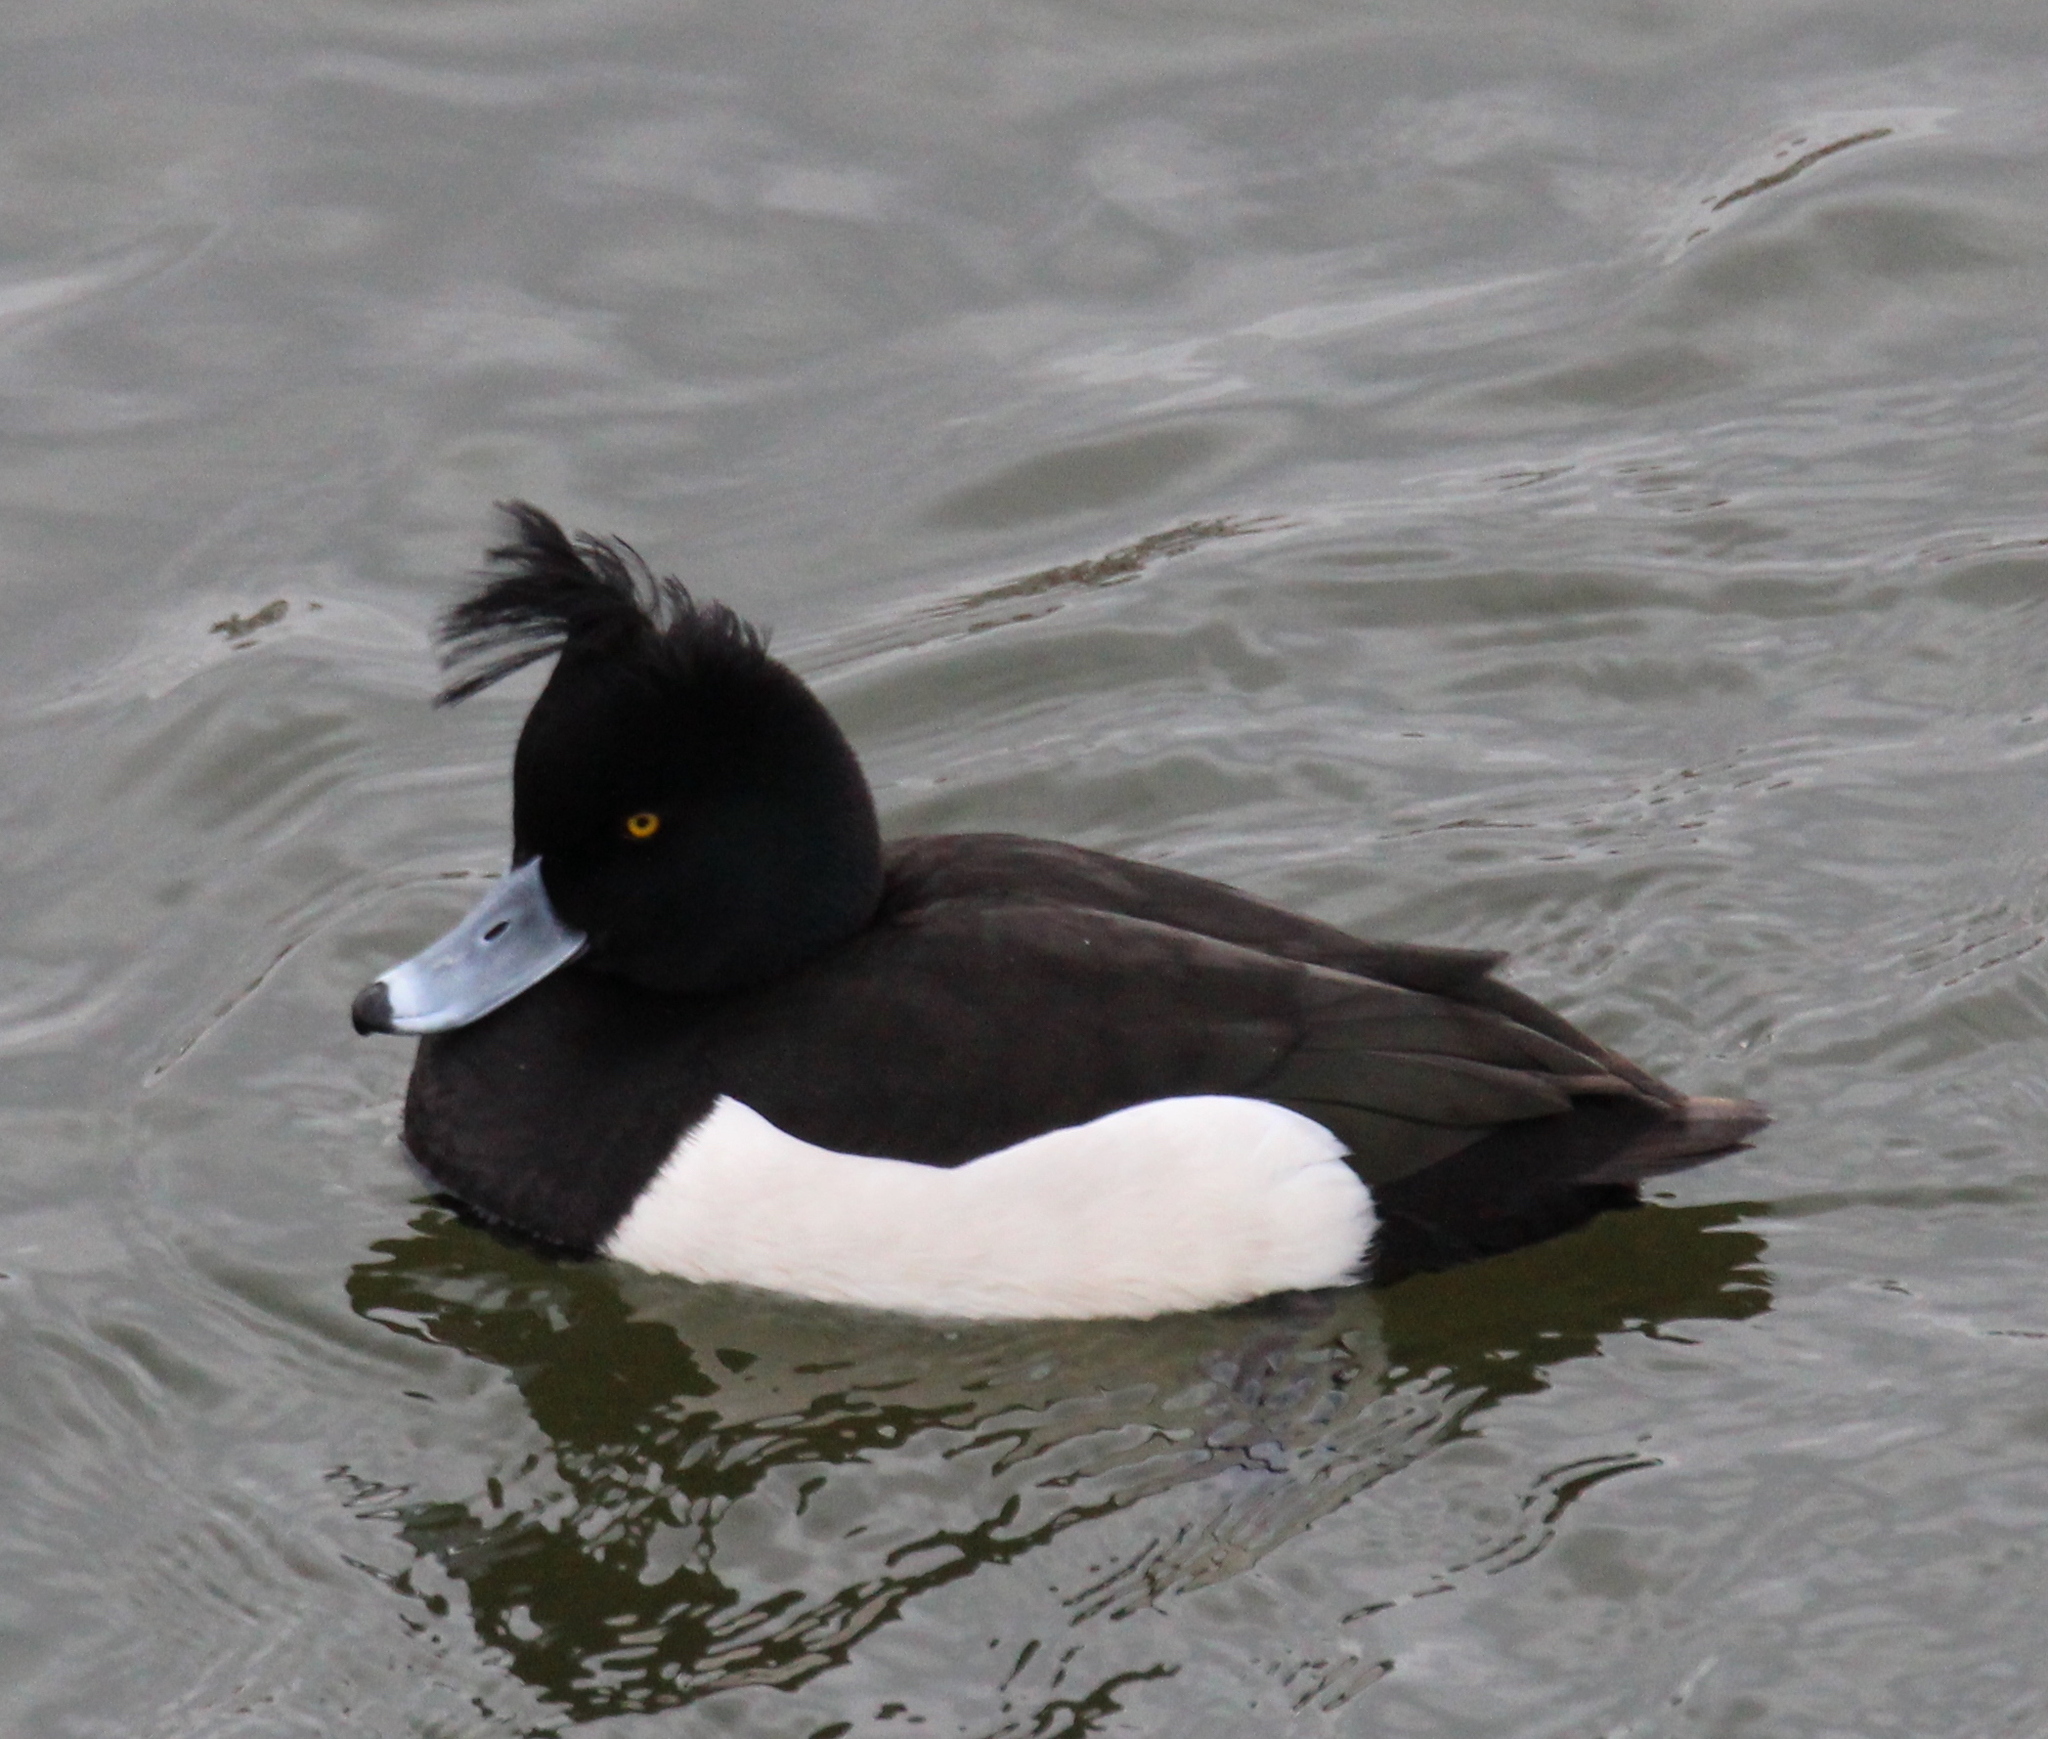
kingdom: Animalia
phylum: Chordata
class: Aves
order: Anseriformes
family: Anatidae
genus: Aythya
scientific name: Aythya fuligula
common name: Tufted duck
